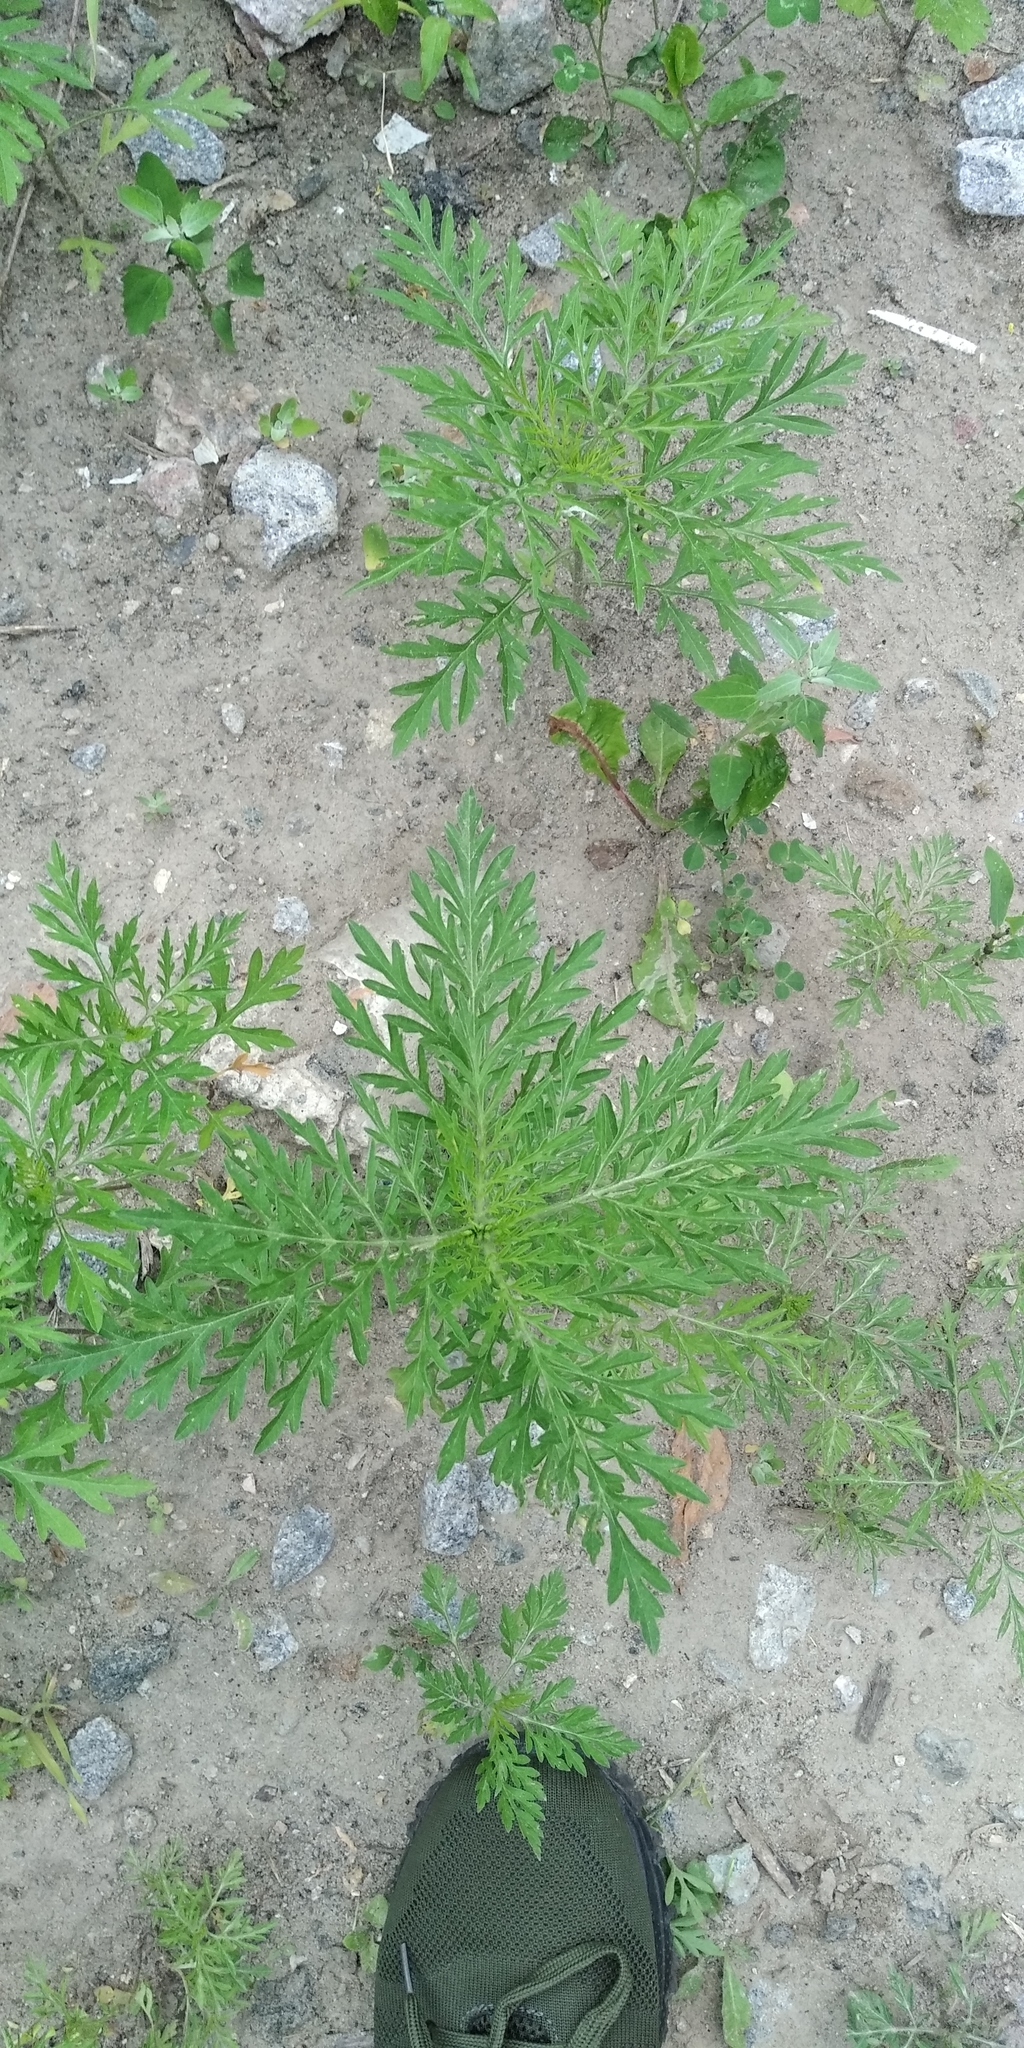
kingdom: Plantae
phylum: Tracheophyta
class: Magnoliopsida
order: Asterales
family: Asteraceae
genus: Ambrosia
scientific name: Ambrosia artemisiifolia
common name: Annual ragweed
